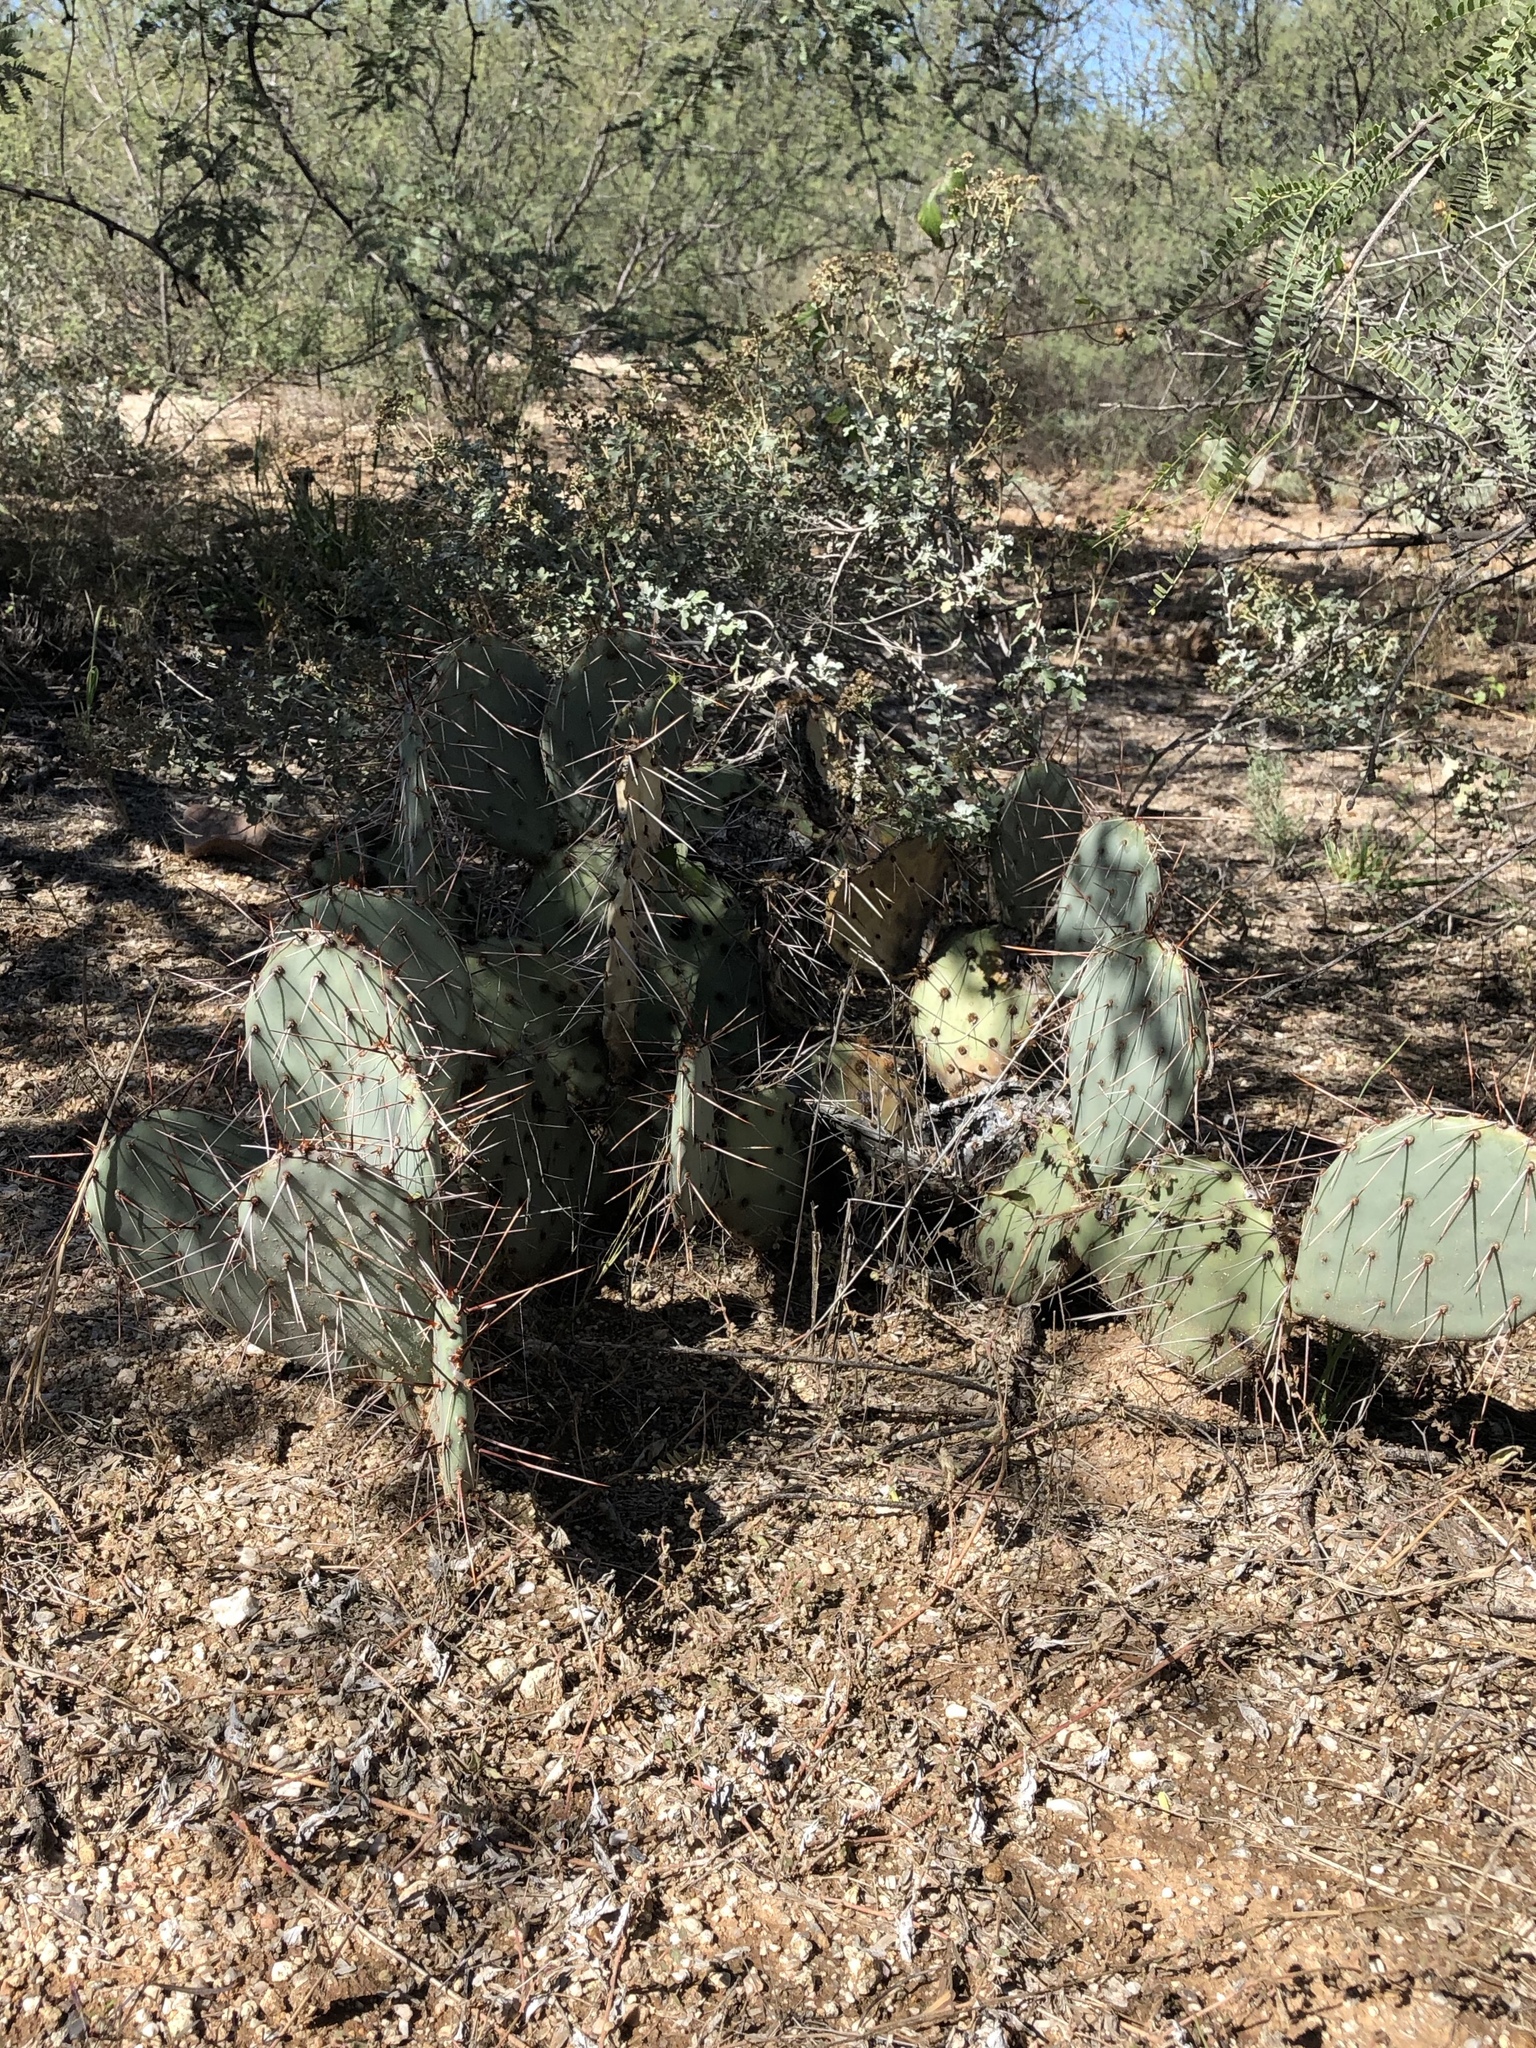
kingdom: Plantae
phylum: Tracheophyta
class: Magnoliopsida
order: Caryophyllales
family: Cactaceae
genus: Opuntia
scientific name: Opuntia phaeacantha
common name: New mexico prickly-pear
